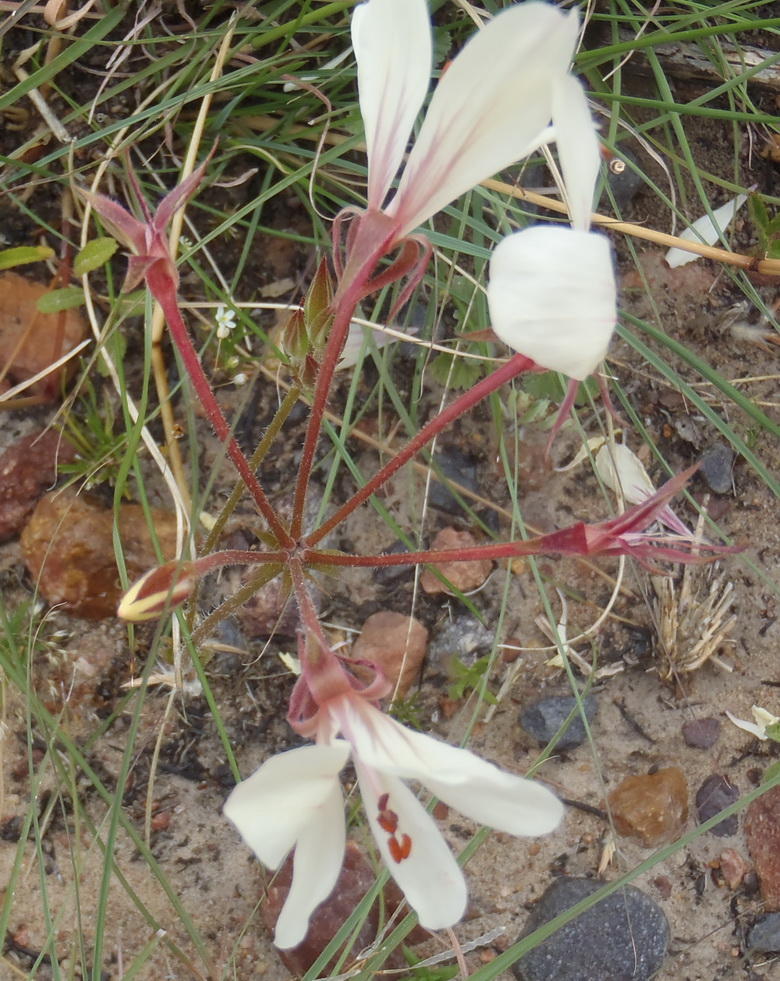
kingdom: Plantae
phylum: Tracheophyta
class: Magnoliopsida
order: Geraniales
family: Geraniaceae
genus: Pelargonium
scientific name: Pelargonium carneum
